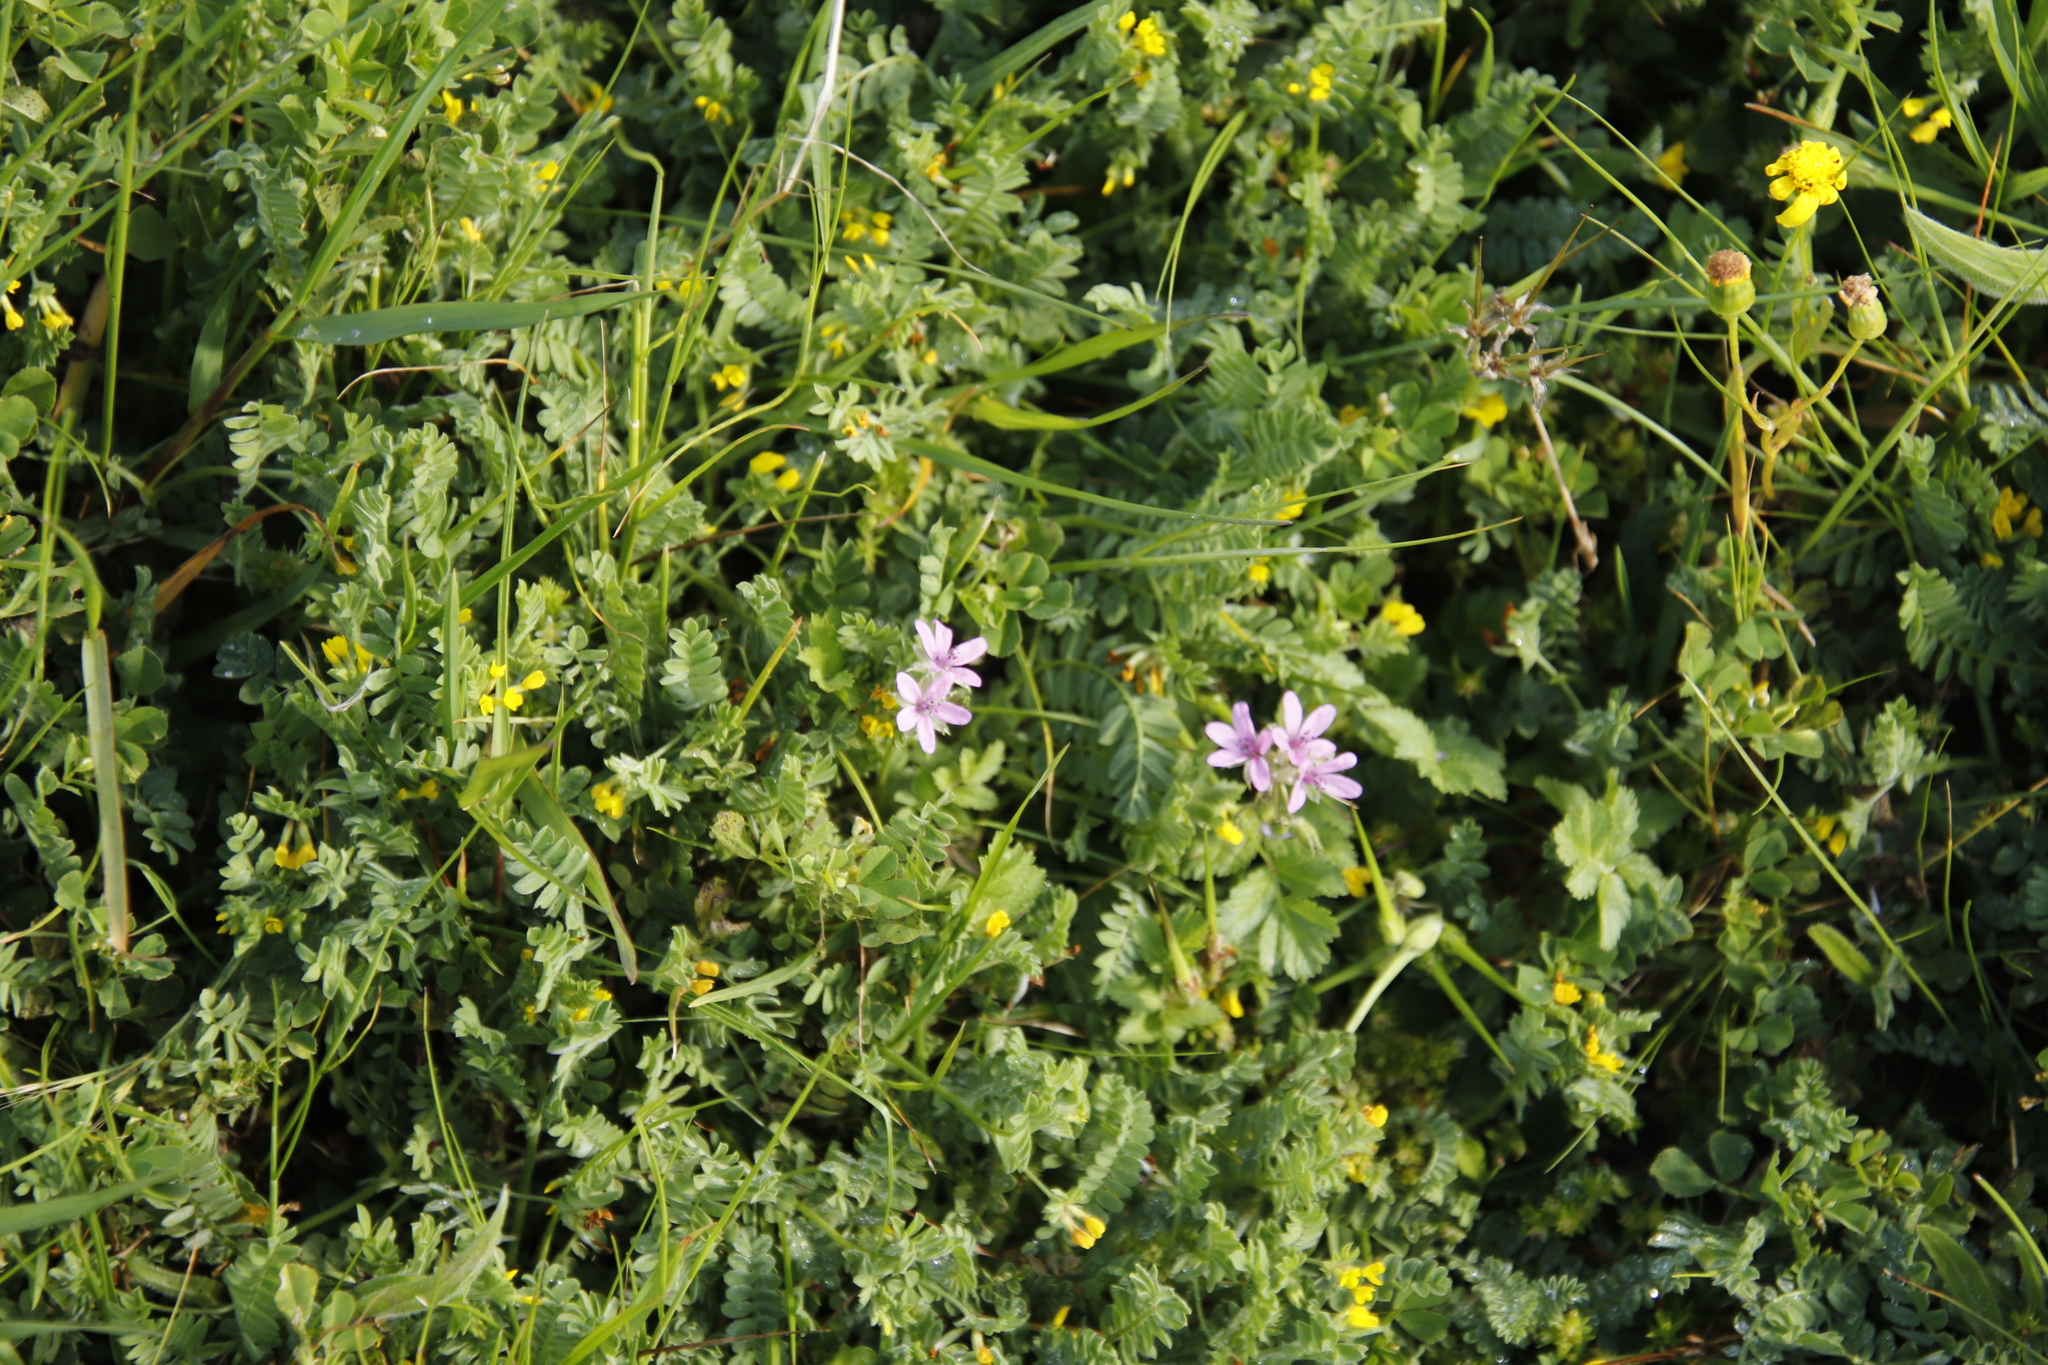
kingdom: Plantae
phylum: Tracheophyta
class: Magnoliopsida
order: Geraniales
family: Geraniaceae
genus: Erodium
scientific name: Erodium moschatum
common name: Musk stork's-bill
